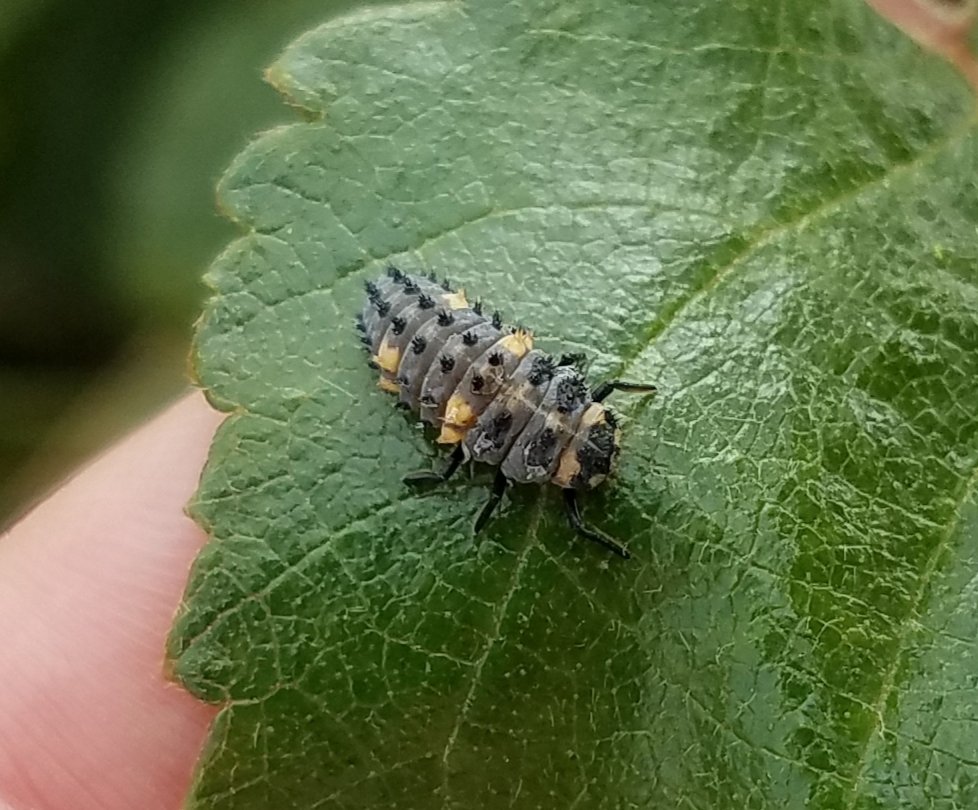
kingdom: Animalia
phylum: Arthropoda
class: Insecta
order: Coleoptera
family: Coccinellidae
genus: Coccinella
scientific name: Coccinella septempunctata
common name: Sevenspotted lady beetle
